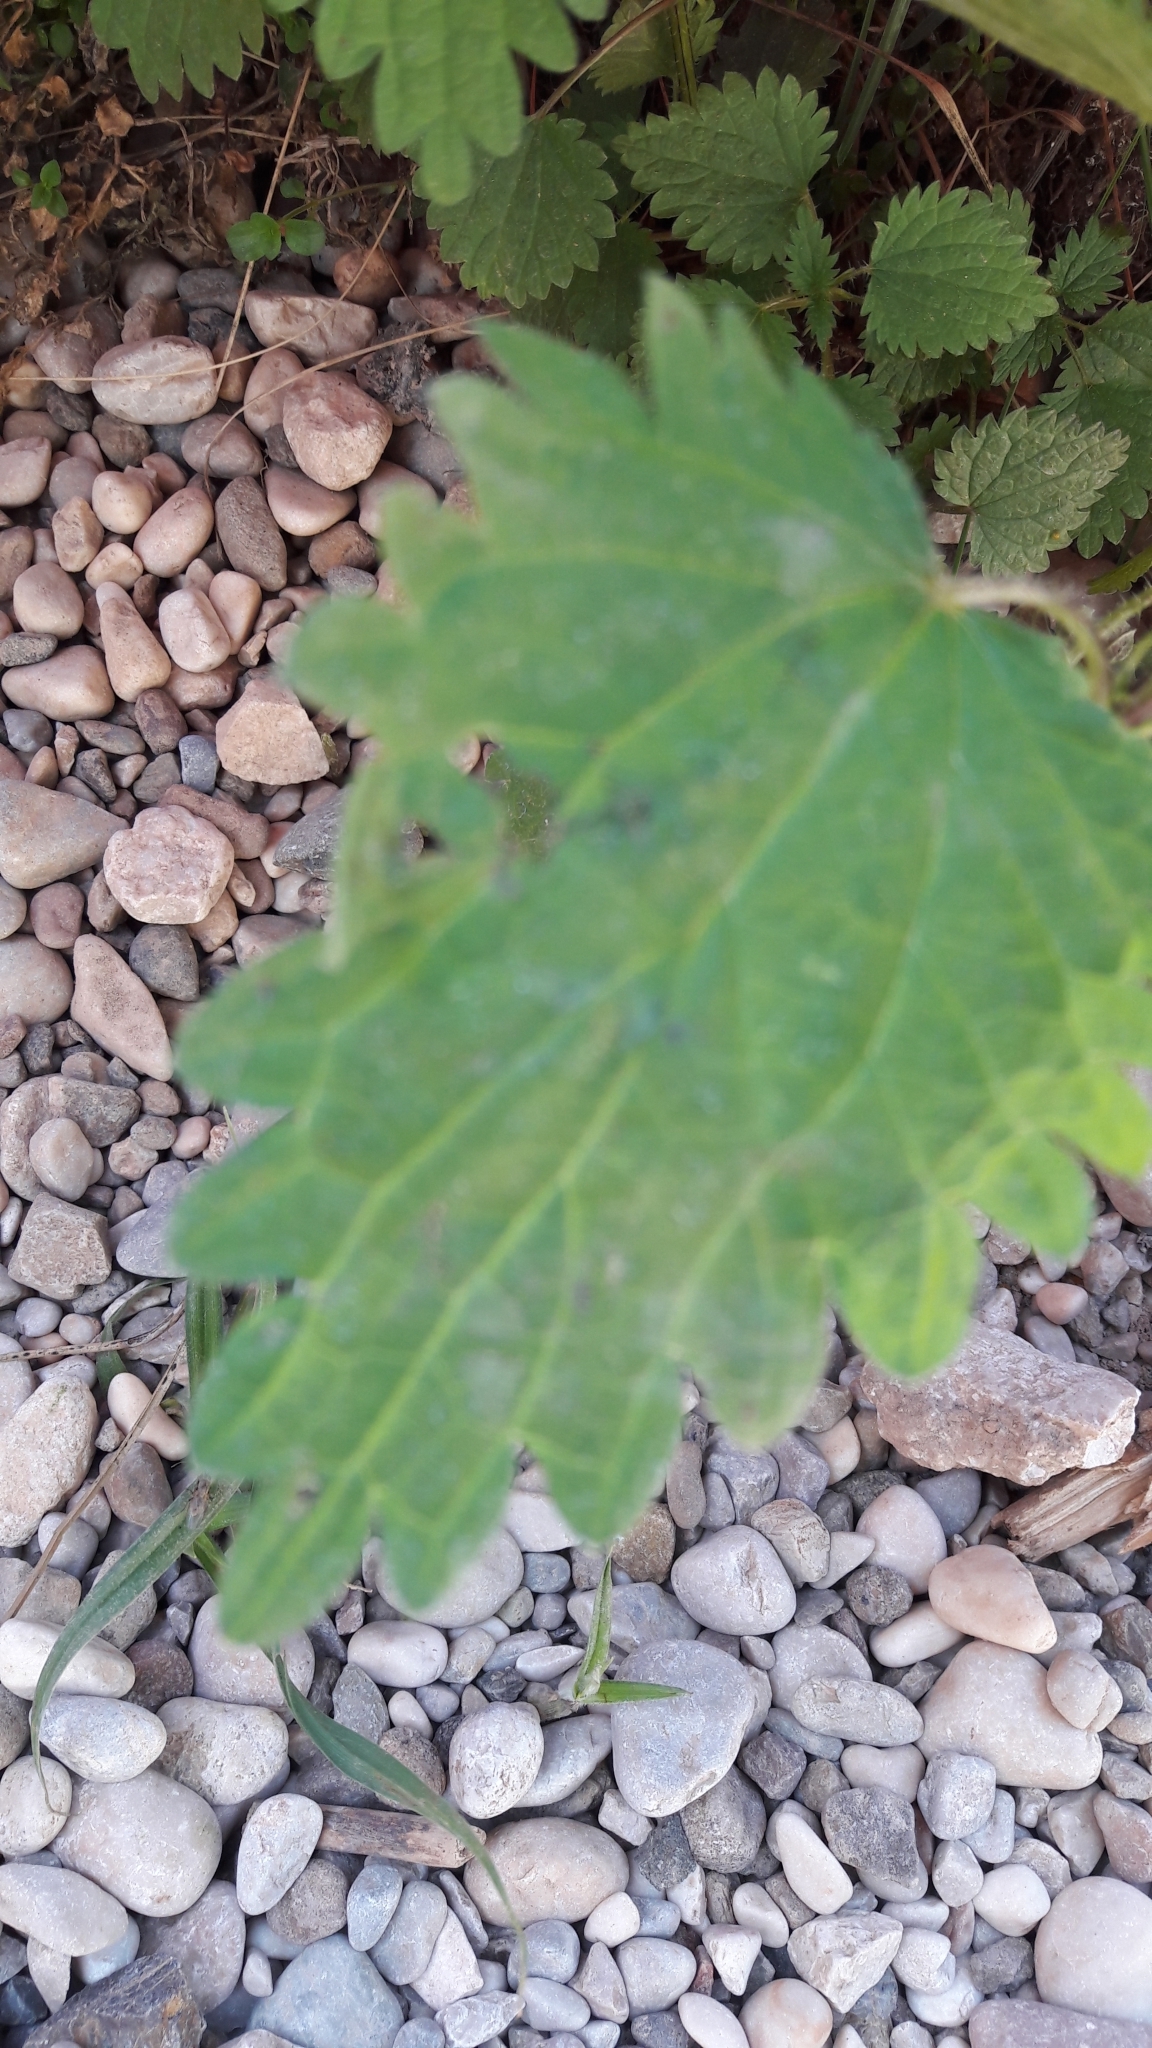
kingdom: Plantae
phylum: Tracheophyta
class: Magnoliopsida
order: Rosales
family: Urticaceae
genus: Urtica
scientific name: Urtica dioica
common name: Common nettle
